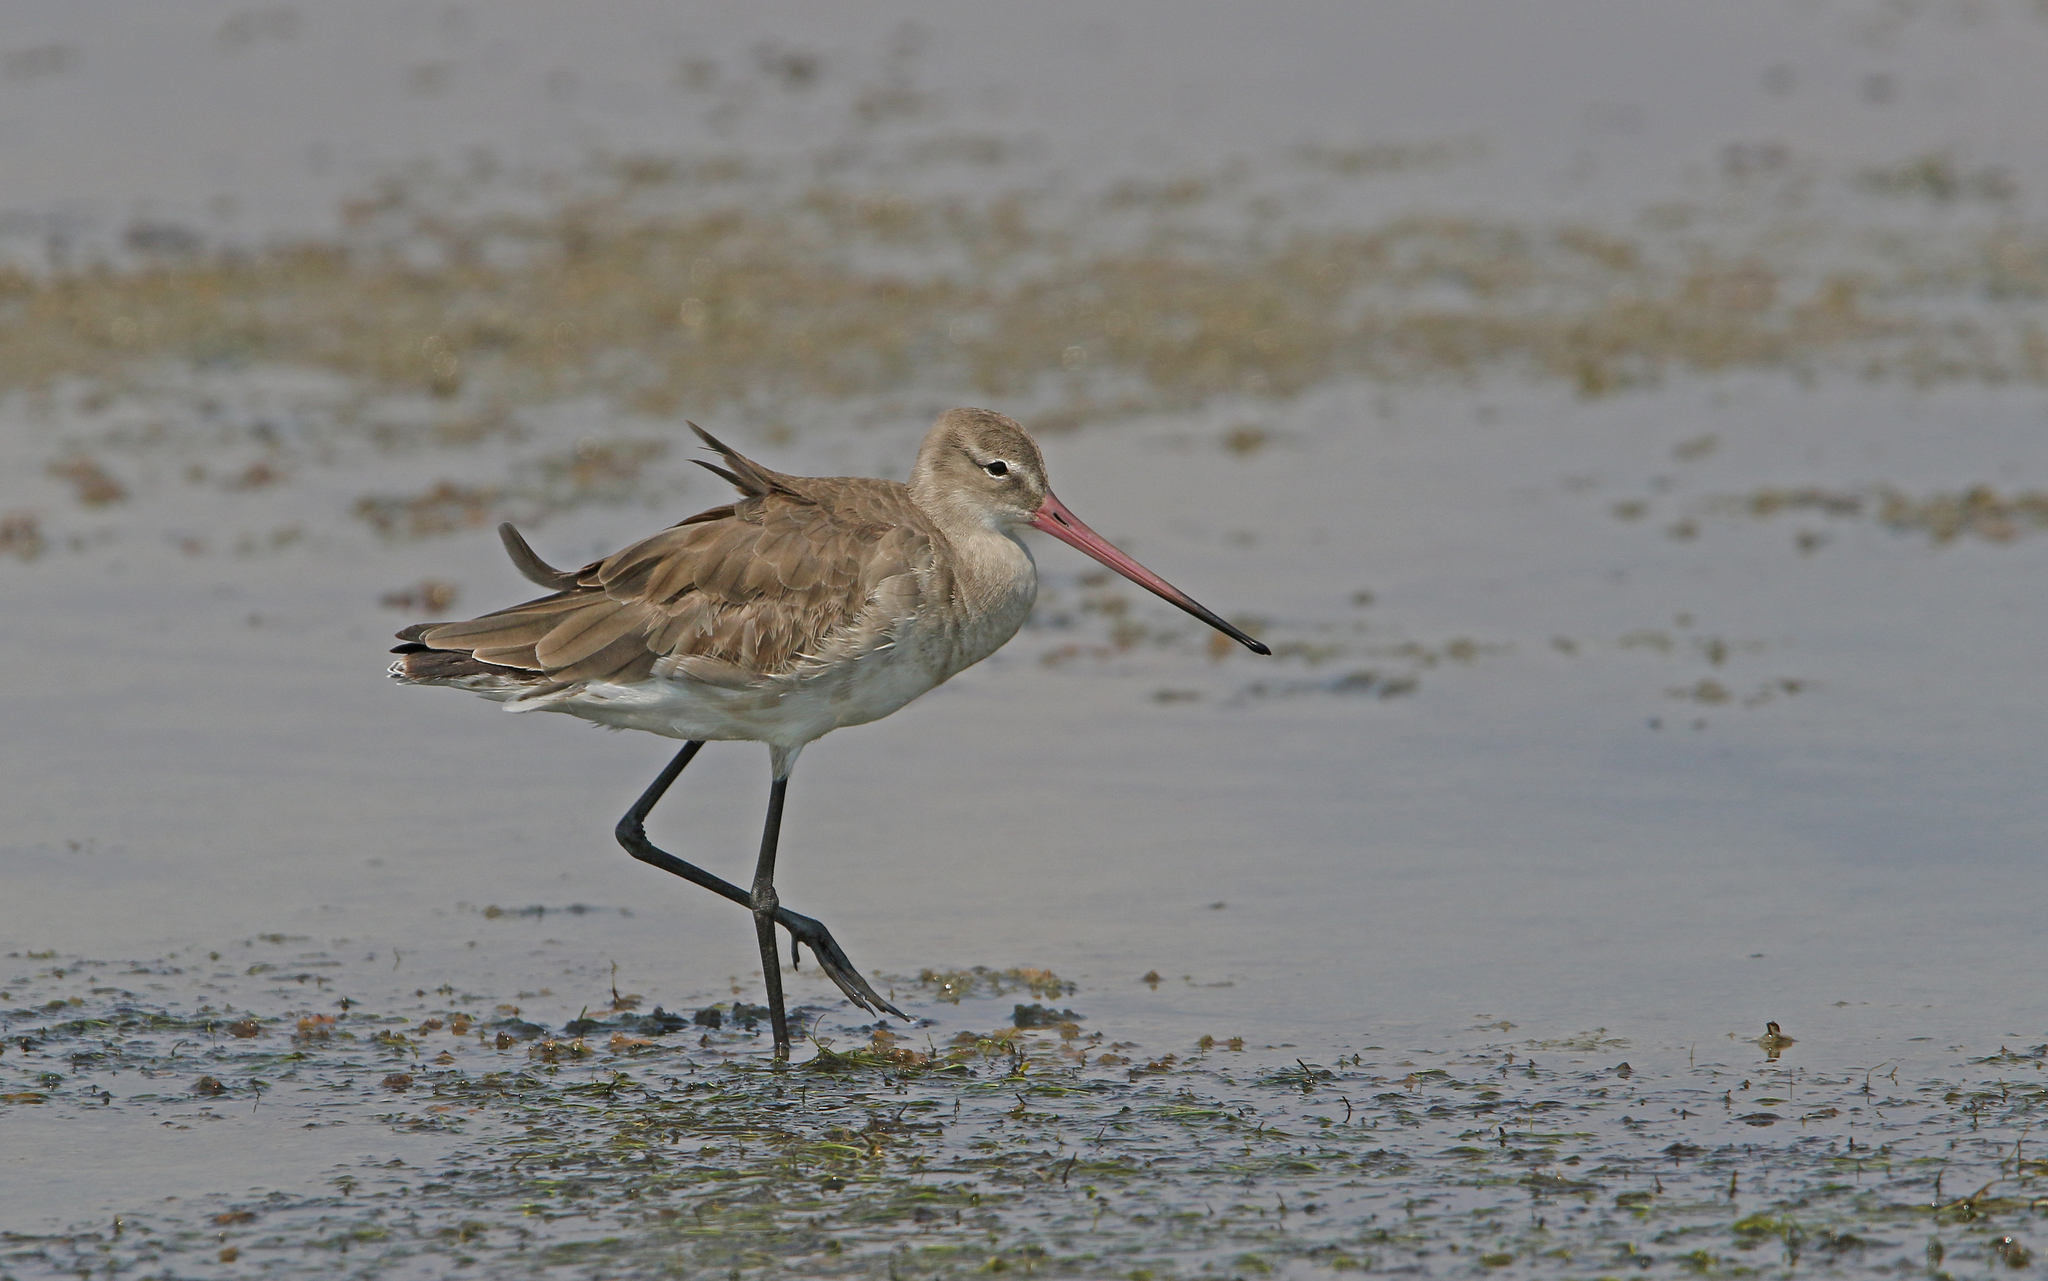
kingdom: Animalia
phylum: Chordata
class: Aves
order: Charadriiformes
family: Scolopacidae
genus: Limosa
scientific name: Limosa limosa
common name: Black-tailed godwit
